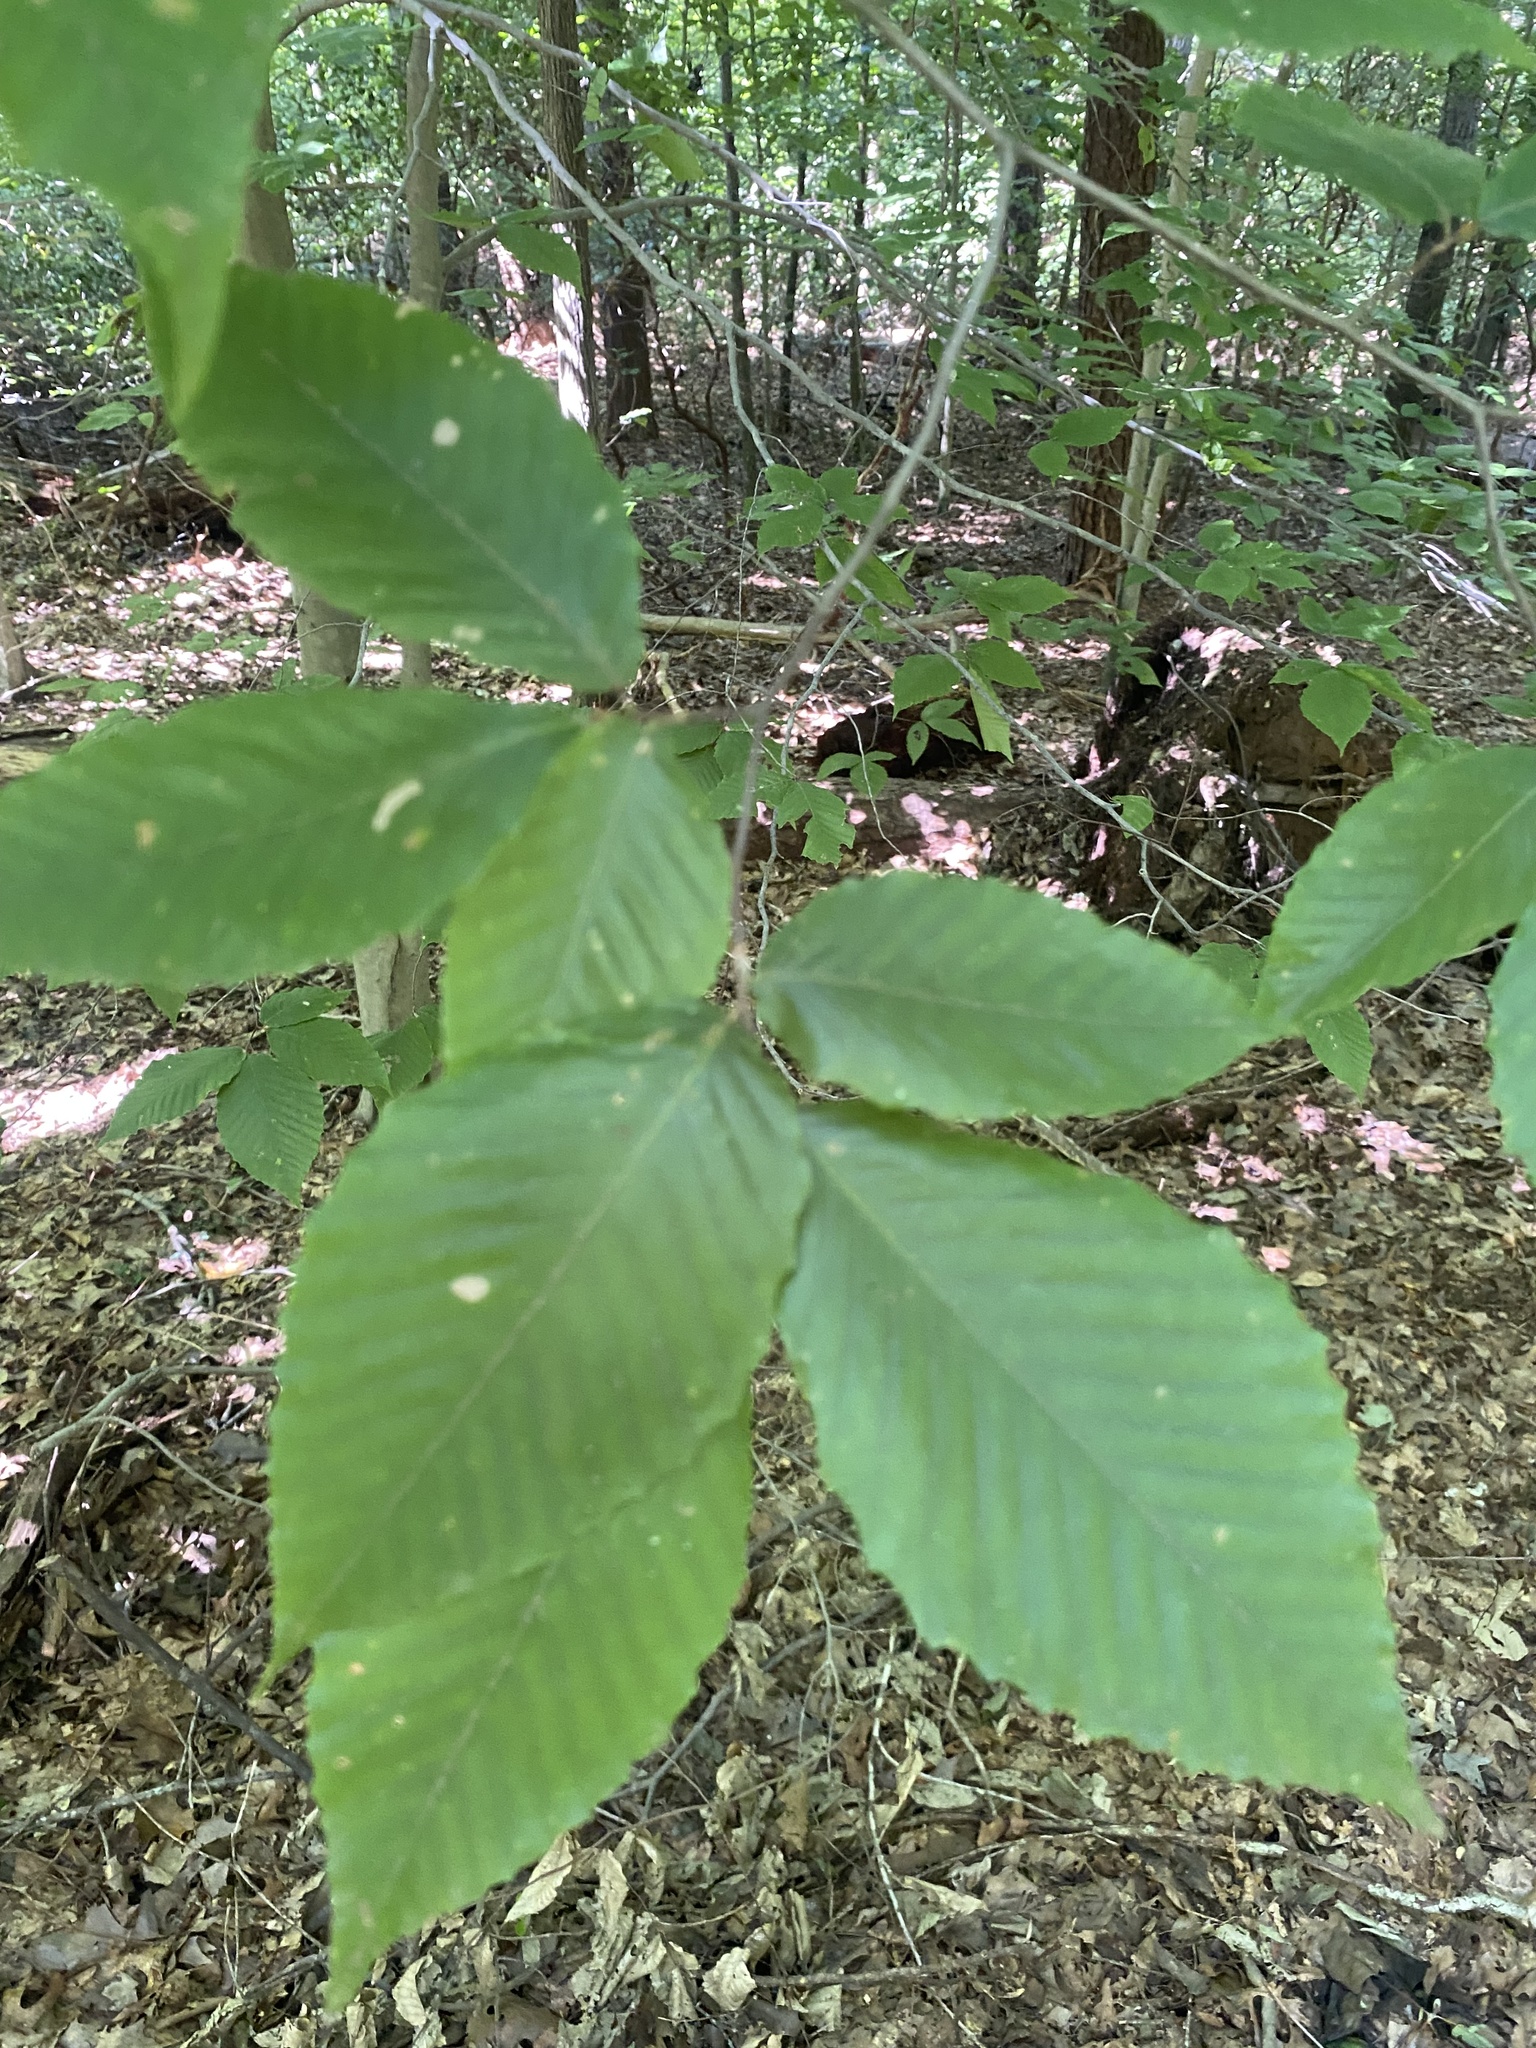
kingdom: Plantae
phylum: Tracheophyta
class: Magnoliopsida
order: Fagales
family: Fagaceae
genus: Fagus
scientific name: Fagus grandifolia
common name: American beech
